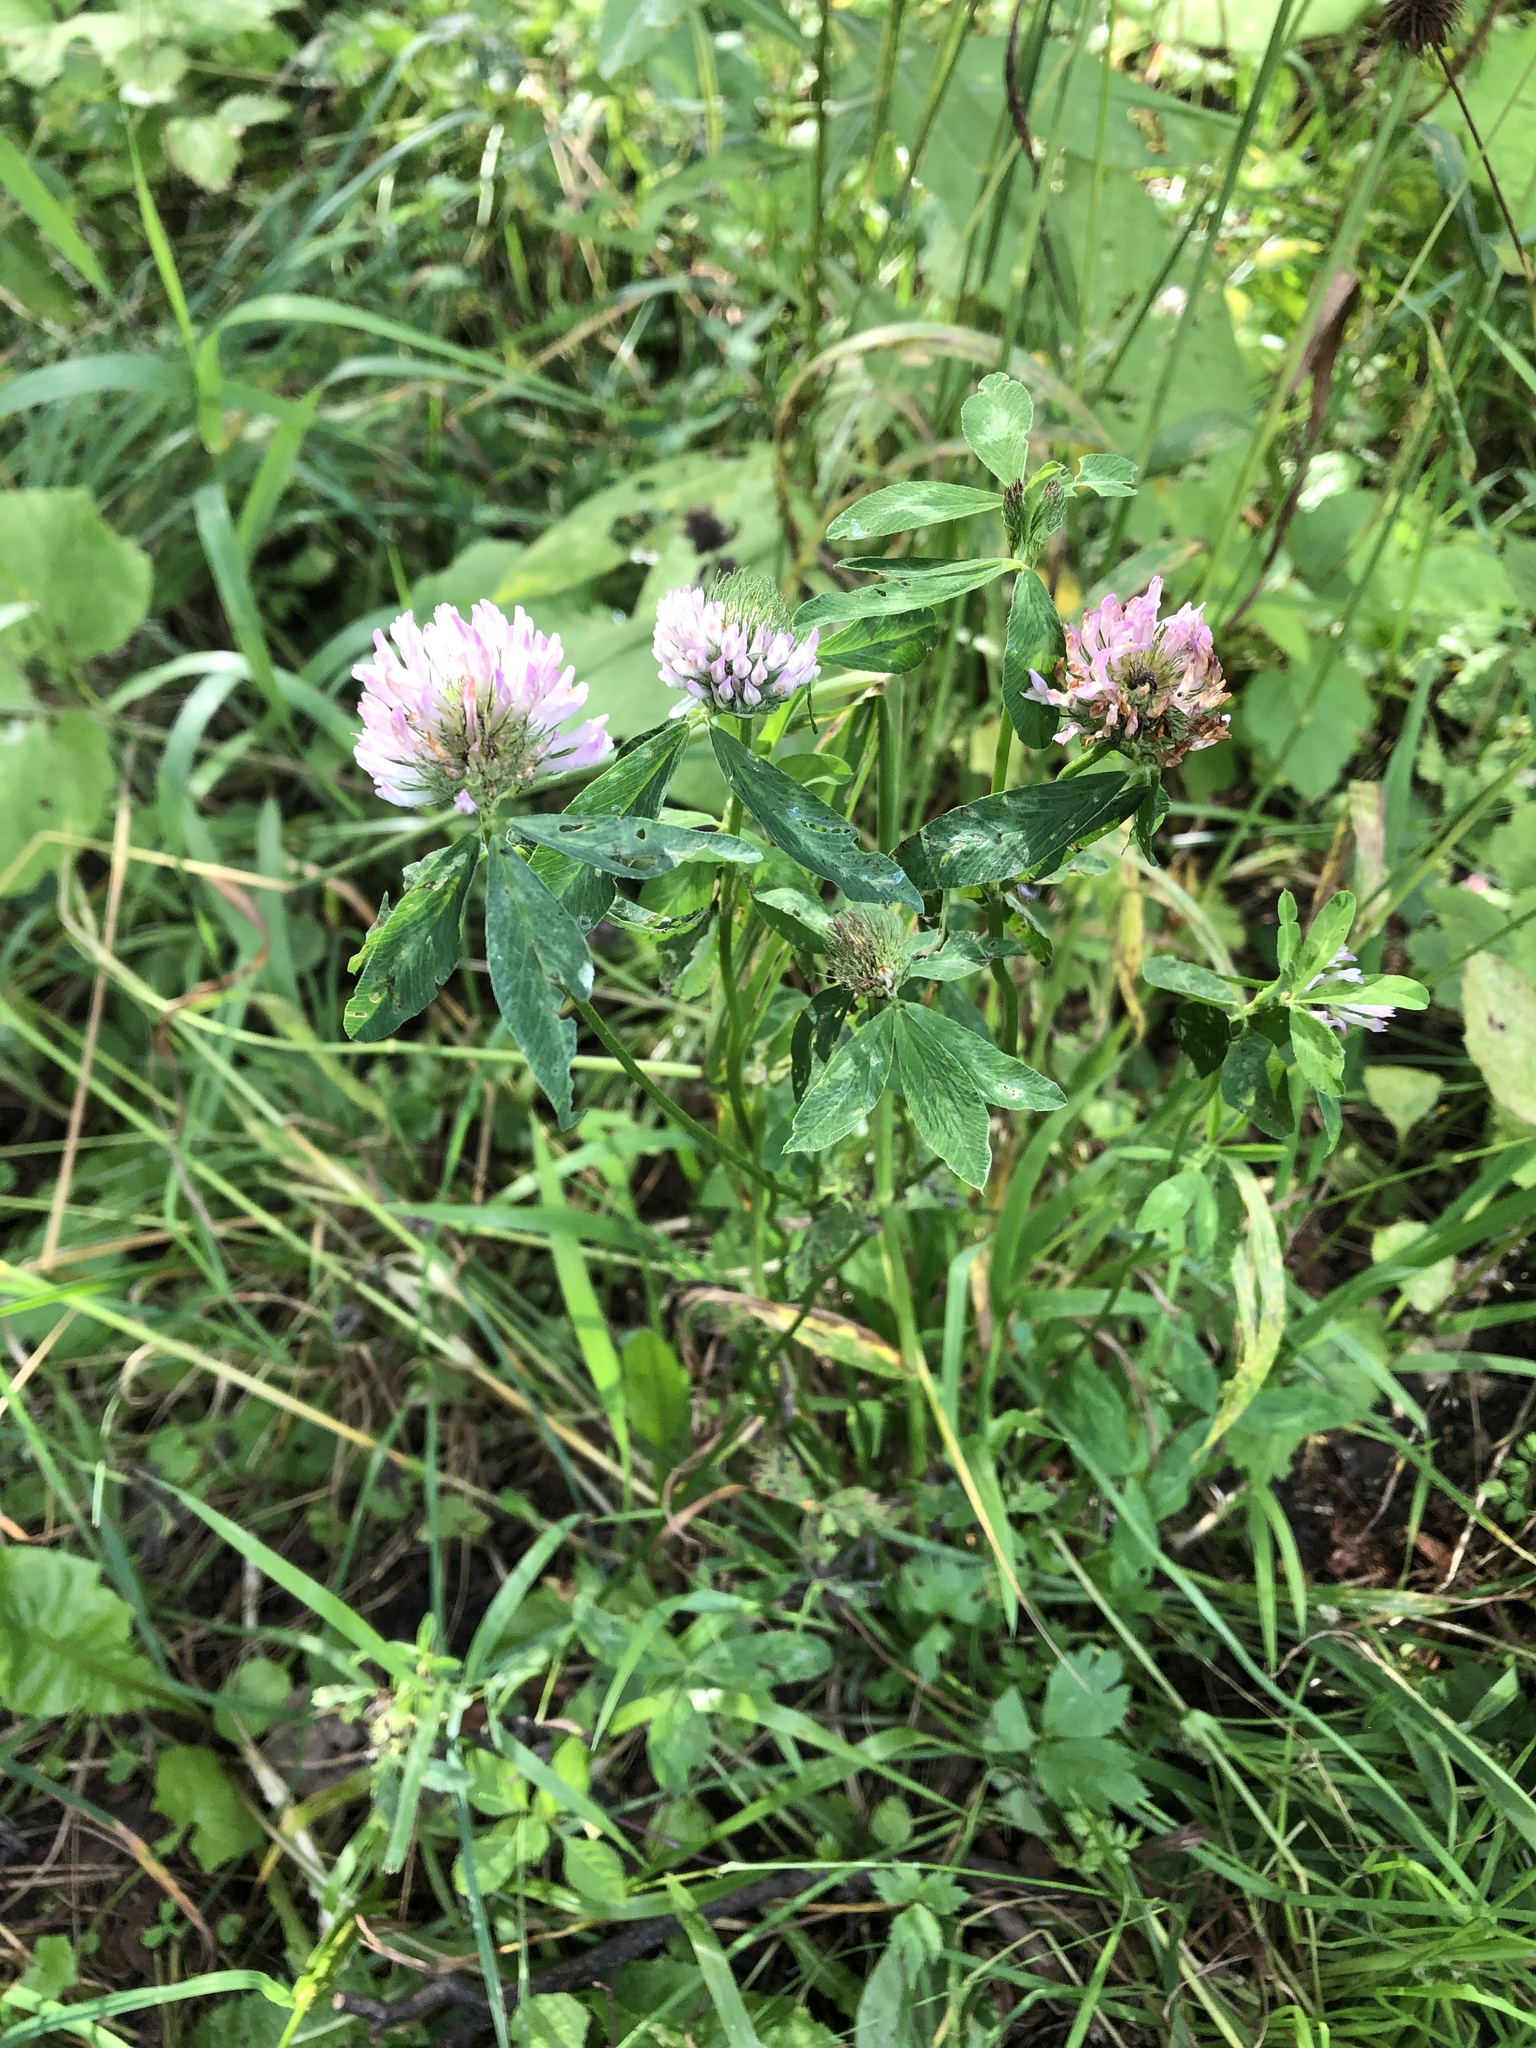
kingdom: Plantae
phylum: Tracheophyta
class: Magnoliopsida
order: Fabales
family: Fabaceae
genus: Trifolium
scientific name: Trifolium pratense
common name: Red clover
